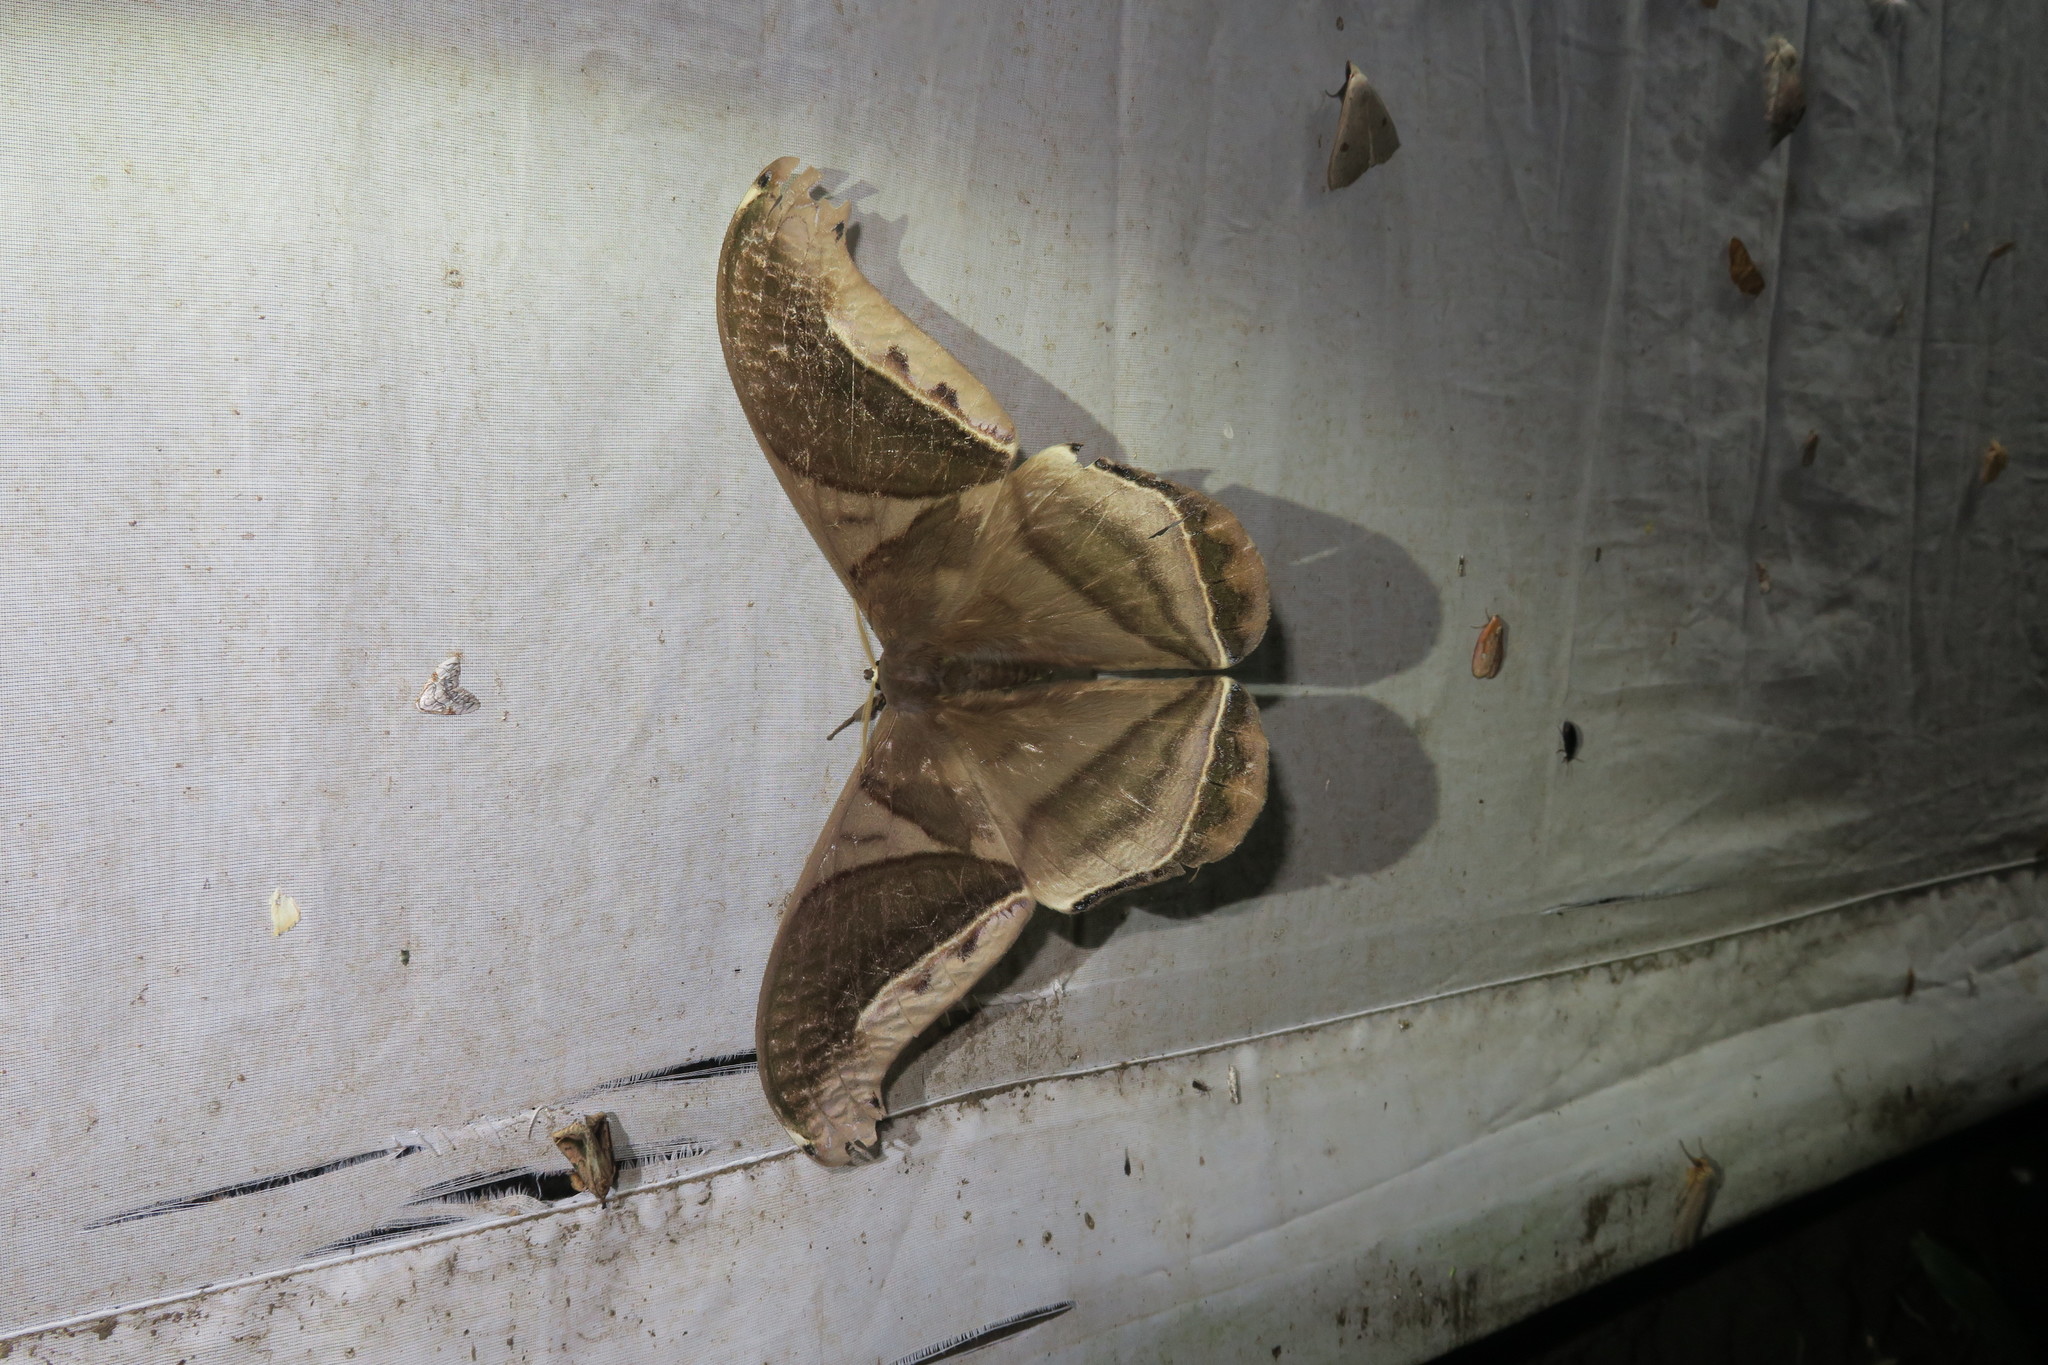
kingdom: Animalia
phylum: Arthropoda
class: Insecta
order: Lepidoptera
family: Saturniidae
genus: Rhescyntis
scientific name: Rhescyntis hippodamia
